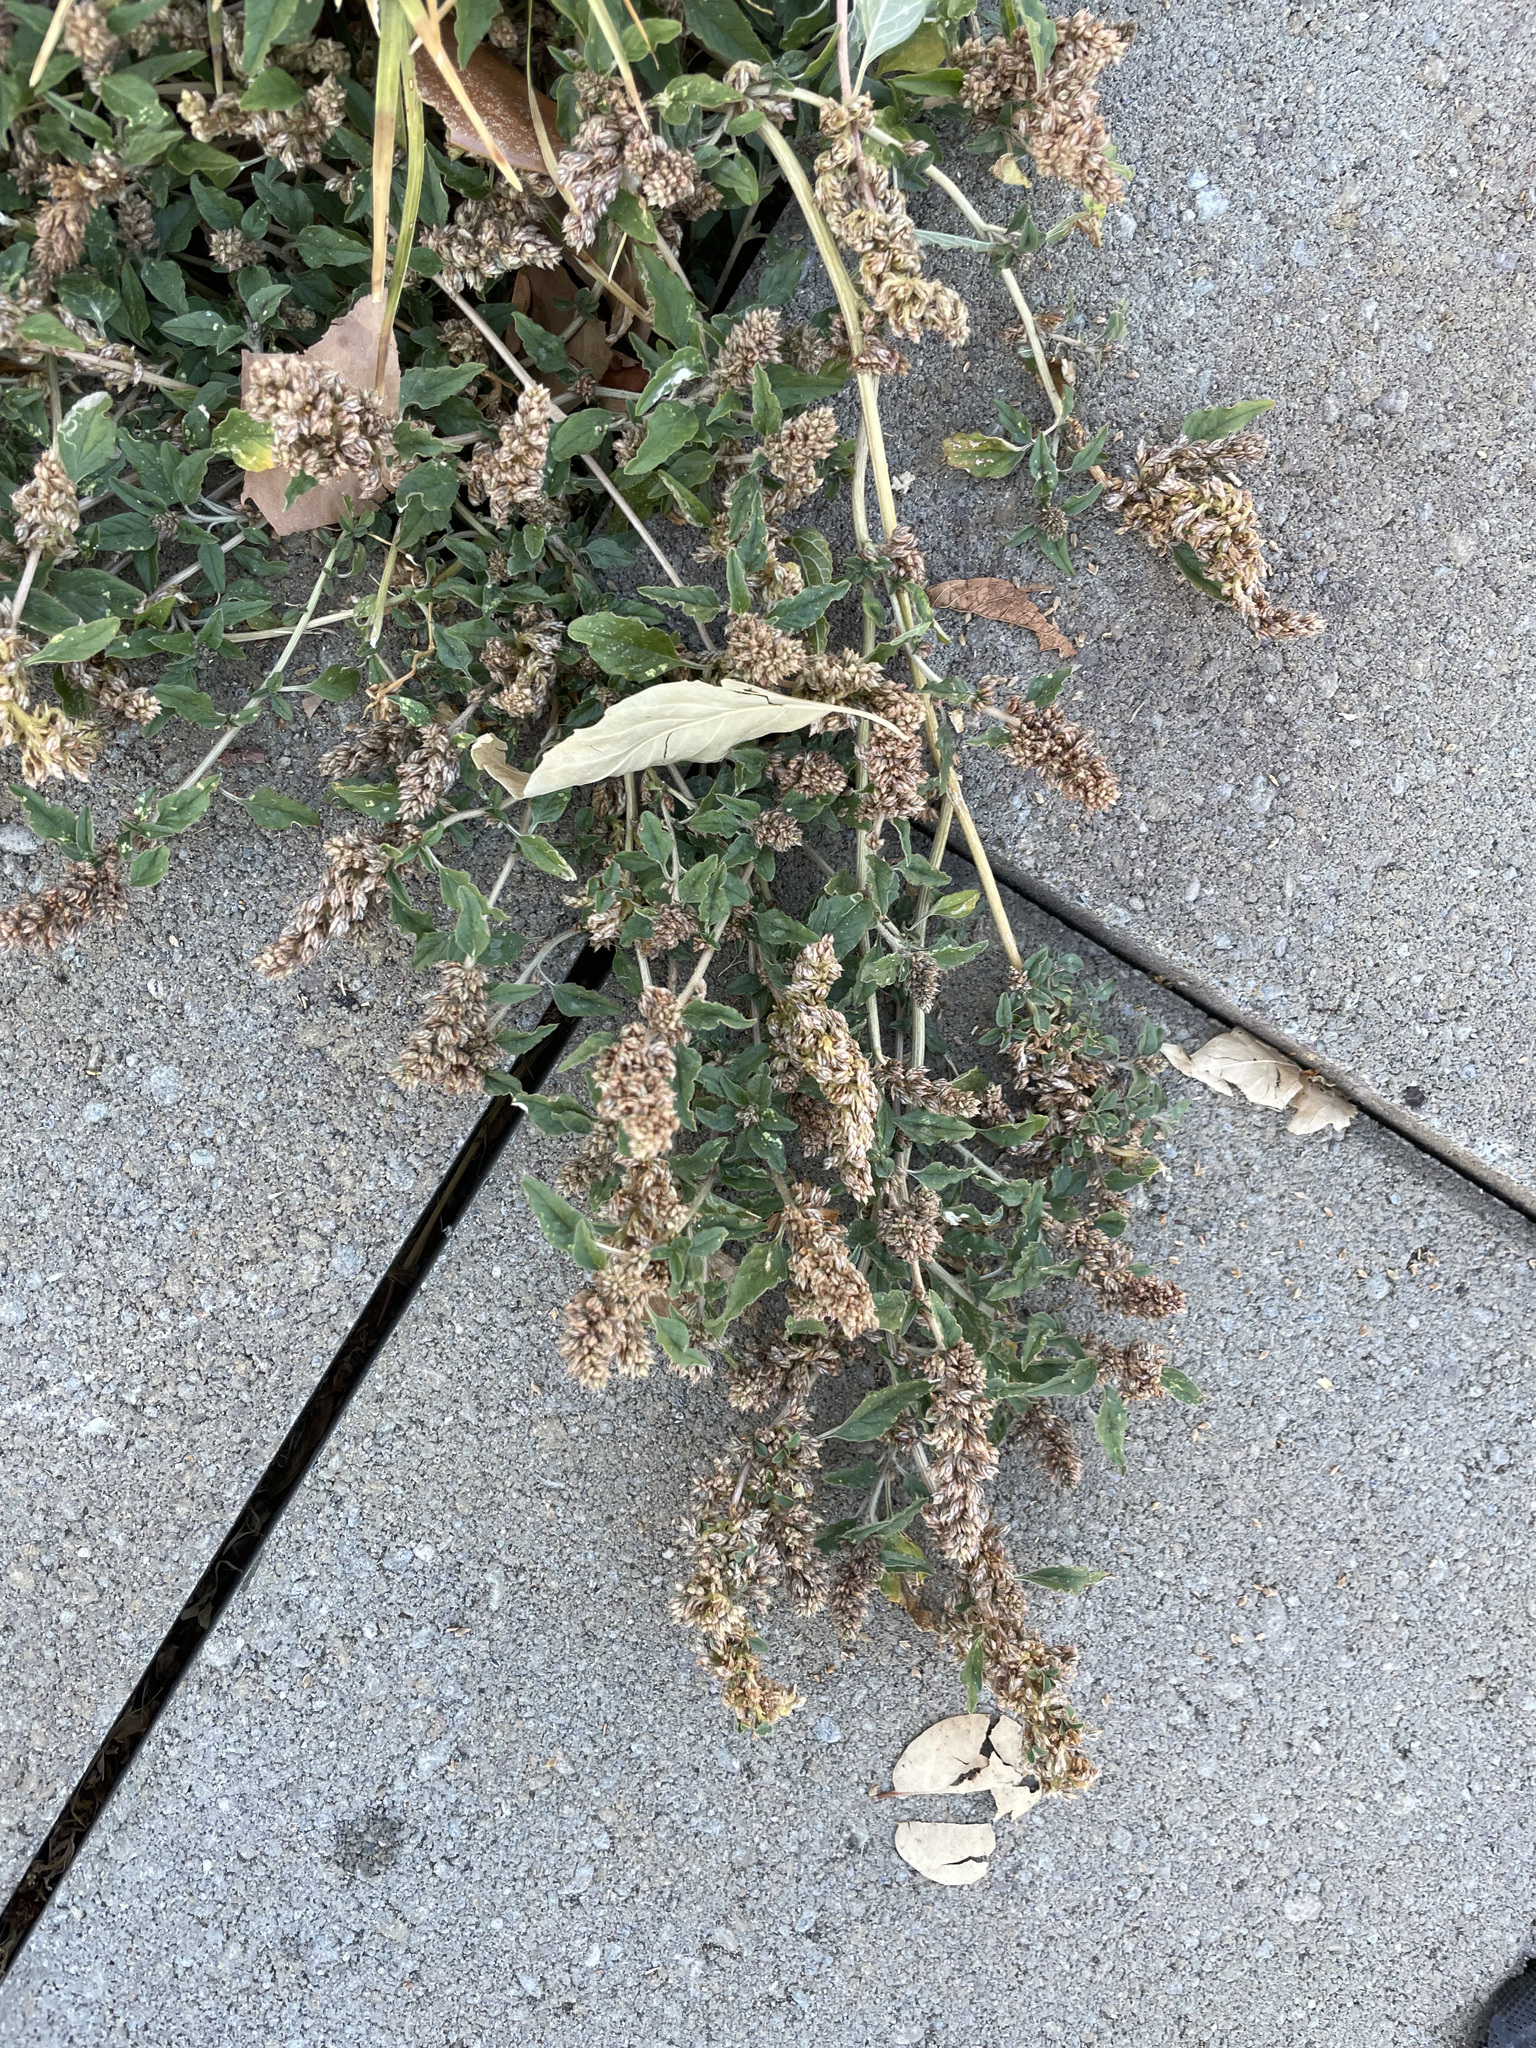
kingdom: Plantae
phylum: Tracheophyta
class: Magnoliopsida
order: Caryophyllales
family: Amaranthaceae
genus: Amaranthus
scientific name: Amaranthus deflexus
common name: Perennial pigweed
